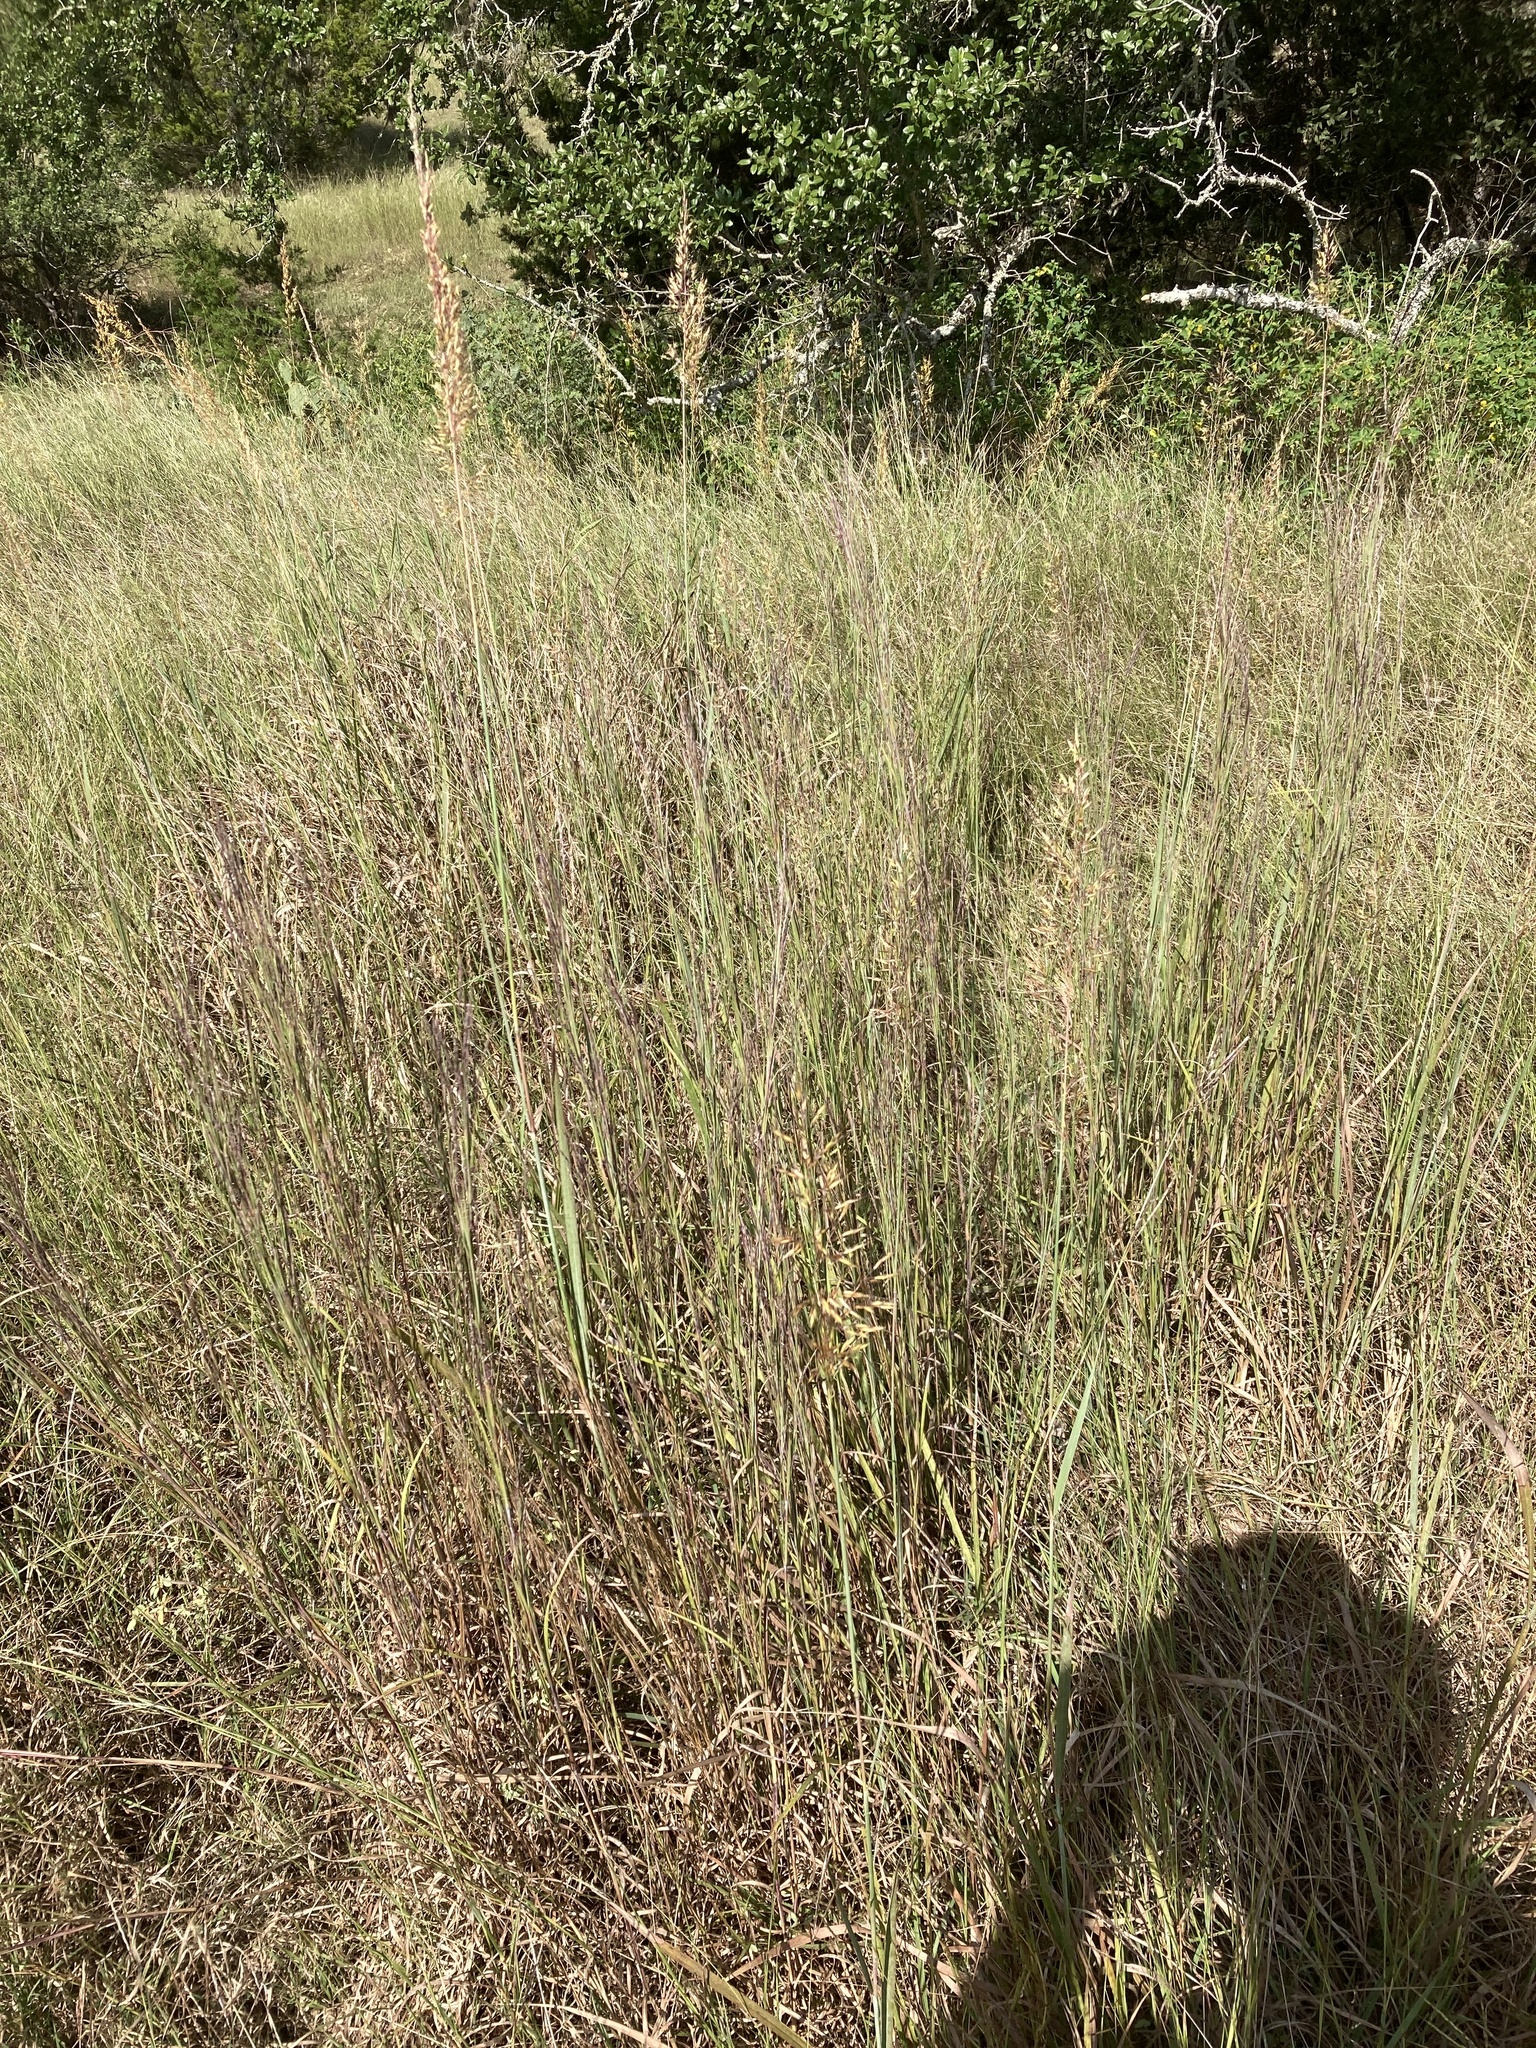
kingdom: Plantae
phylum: Tracheophyta
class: Liliopsida
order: Poales
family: Poaceae
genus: Sorghastrum
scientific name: Sorghastrum nutans
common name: Indian grass
